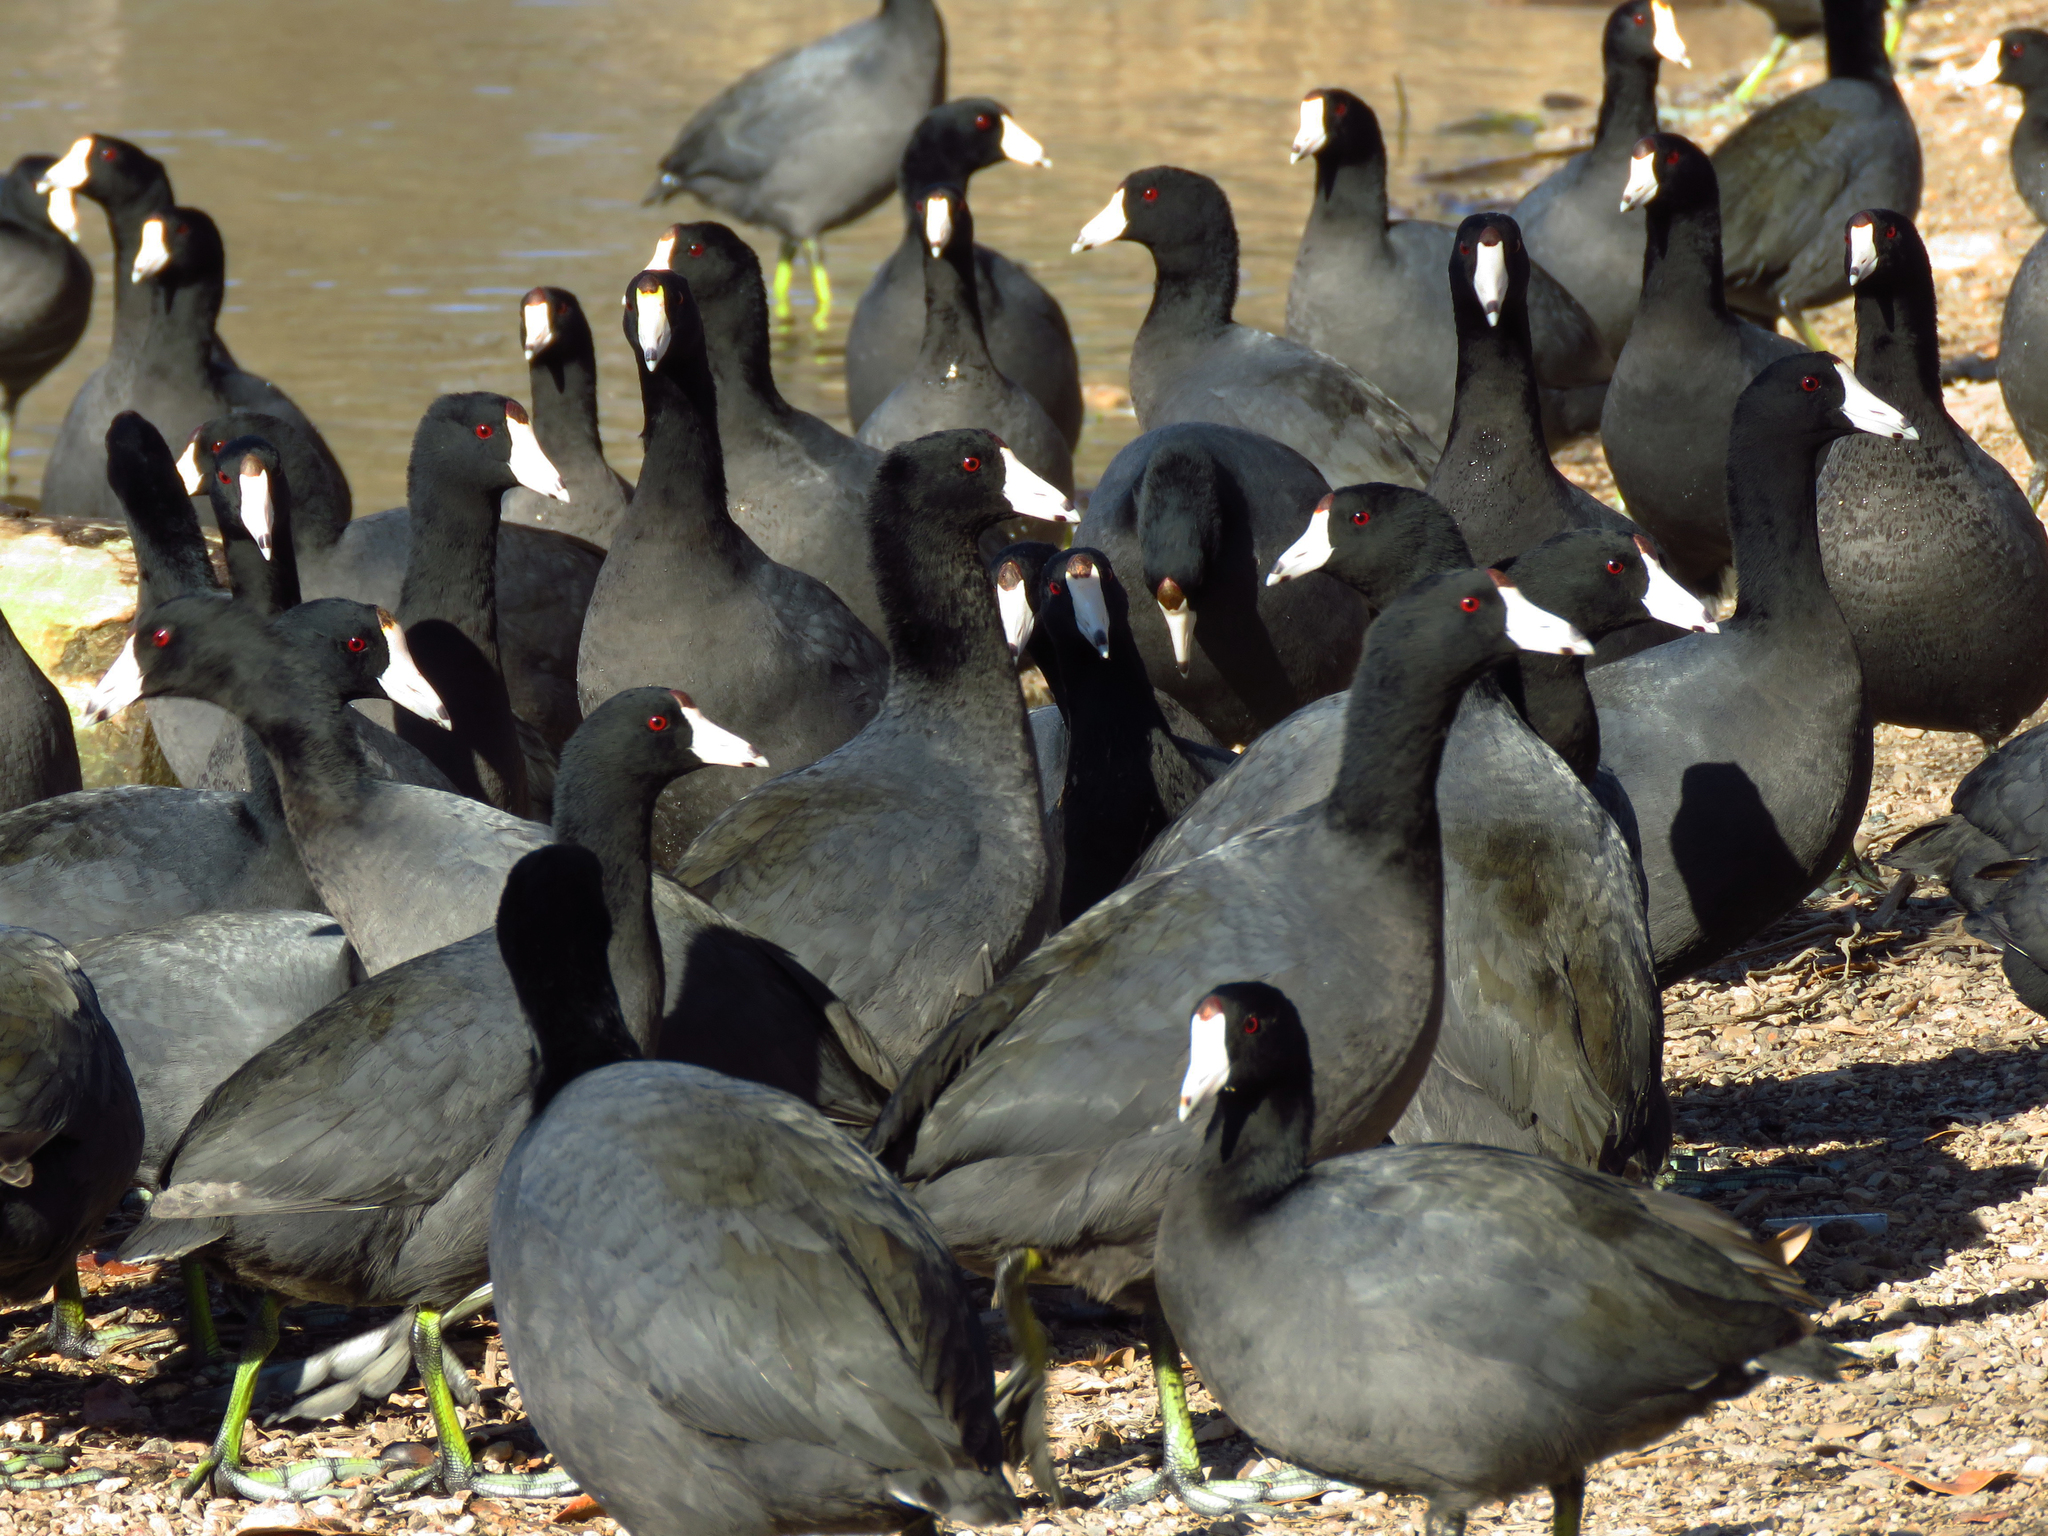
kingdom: Animalia
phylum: Chordata
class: Aves
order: Gruiformes
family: Rallidae
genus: Fulica
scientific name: Fulica americana
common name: American coot
